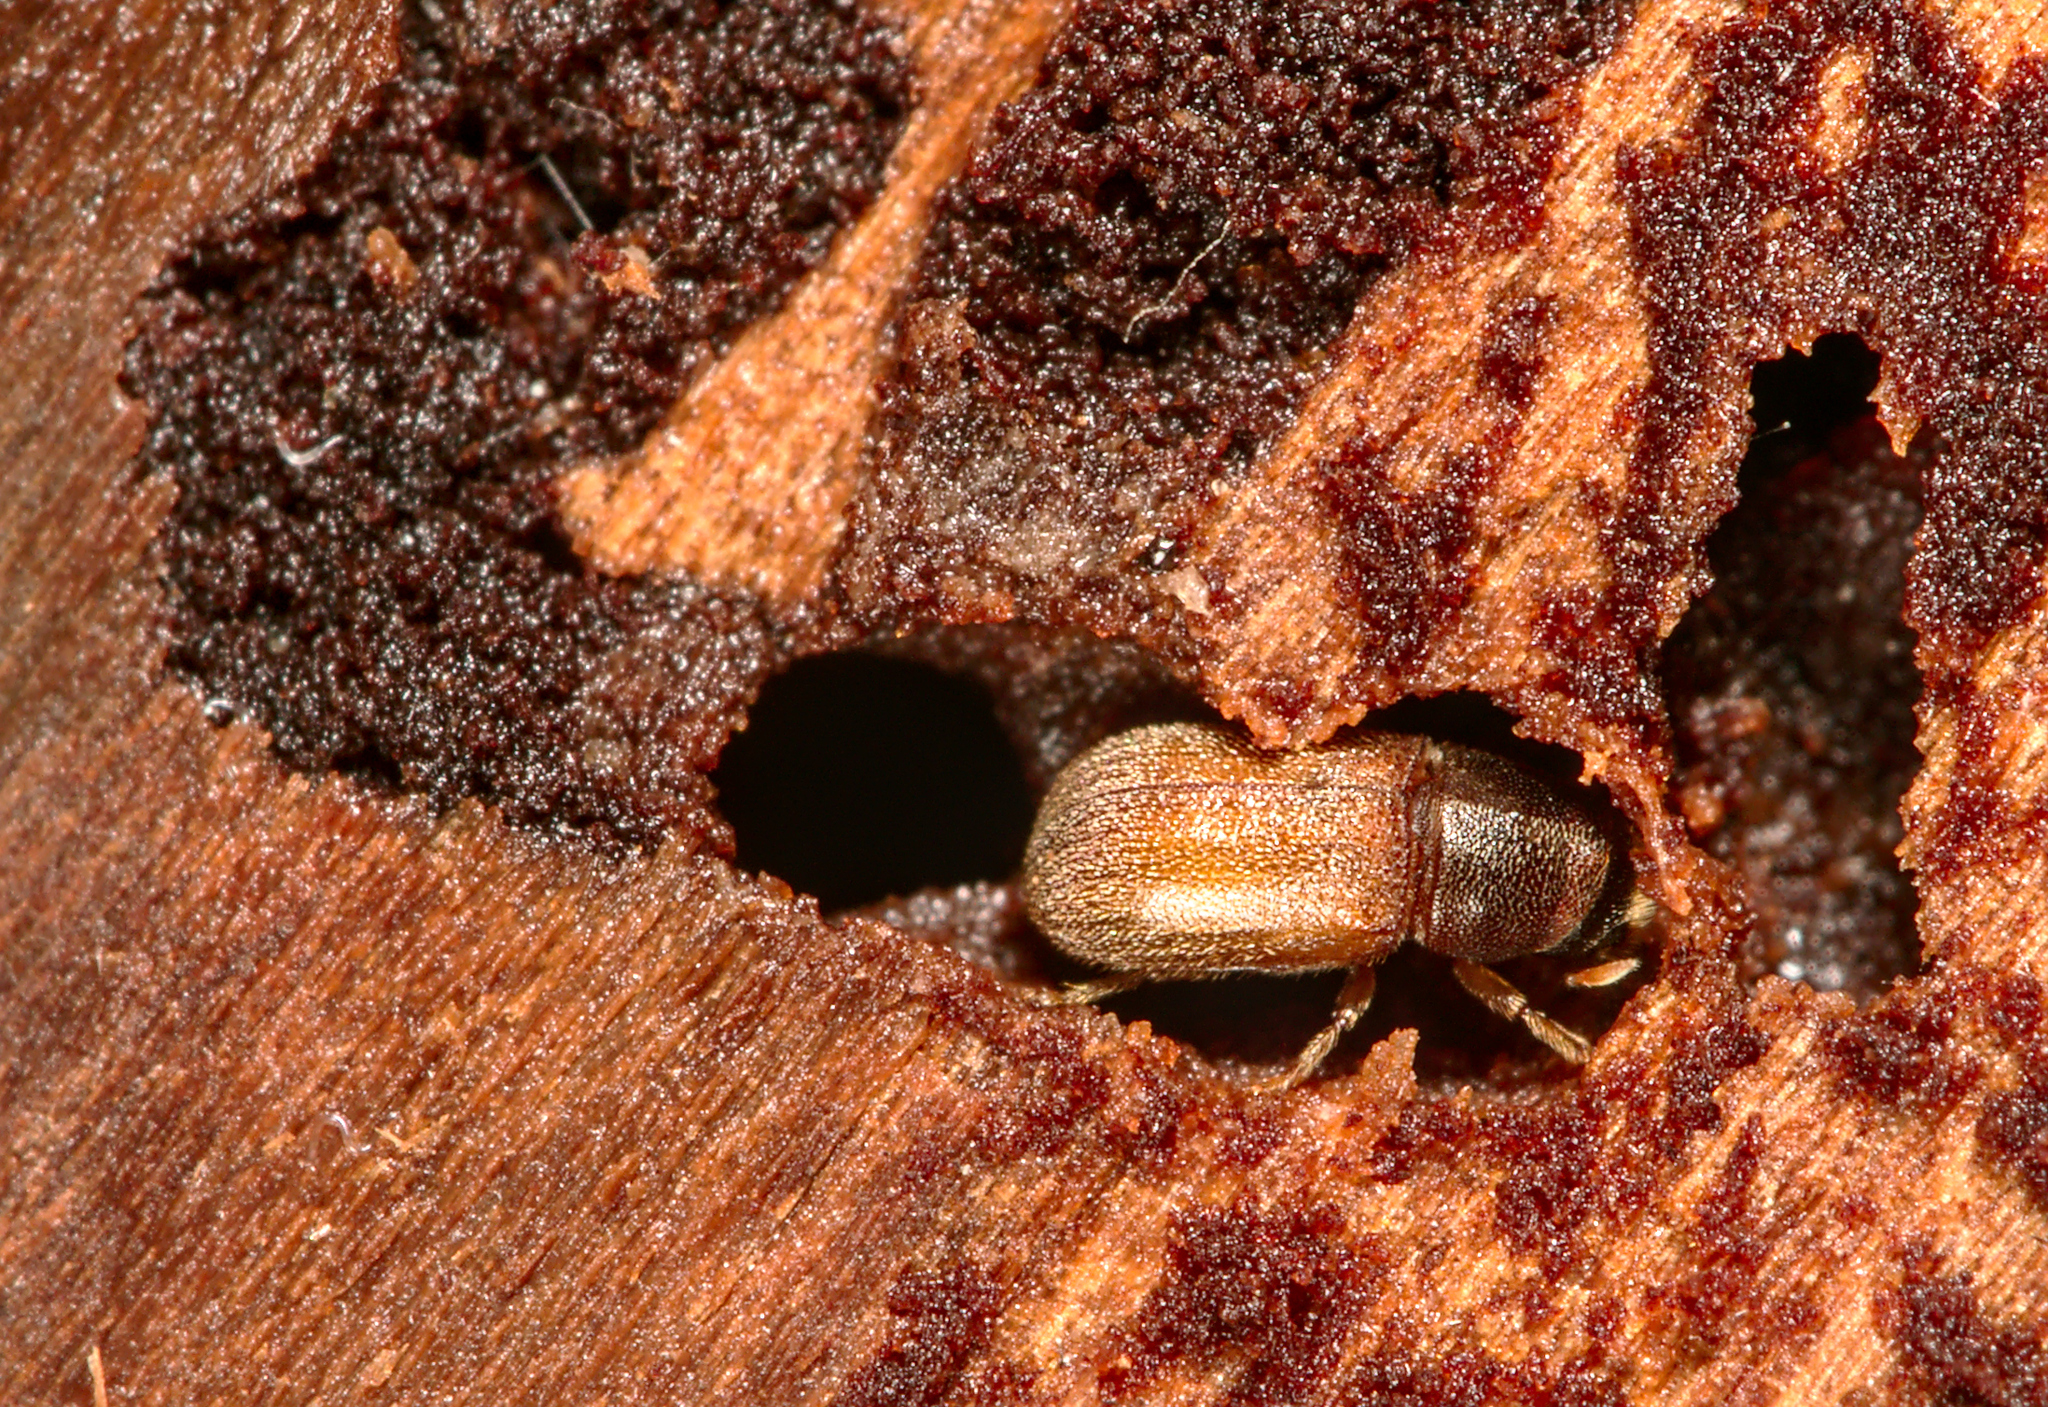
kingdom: Animalia
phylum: Arthropoda
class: Insecta
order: Coleoptera
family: Curculionidae
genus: Polygraphus
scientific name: Polygraphus poligraphus
